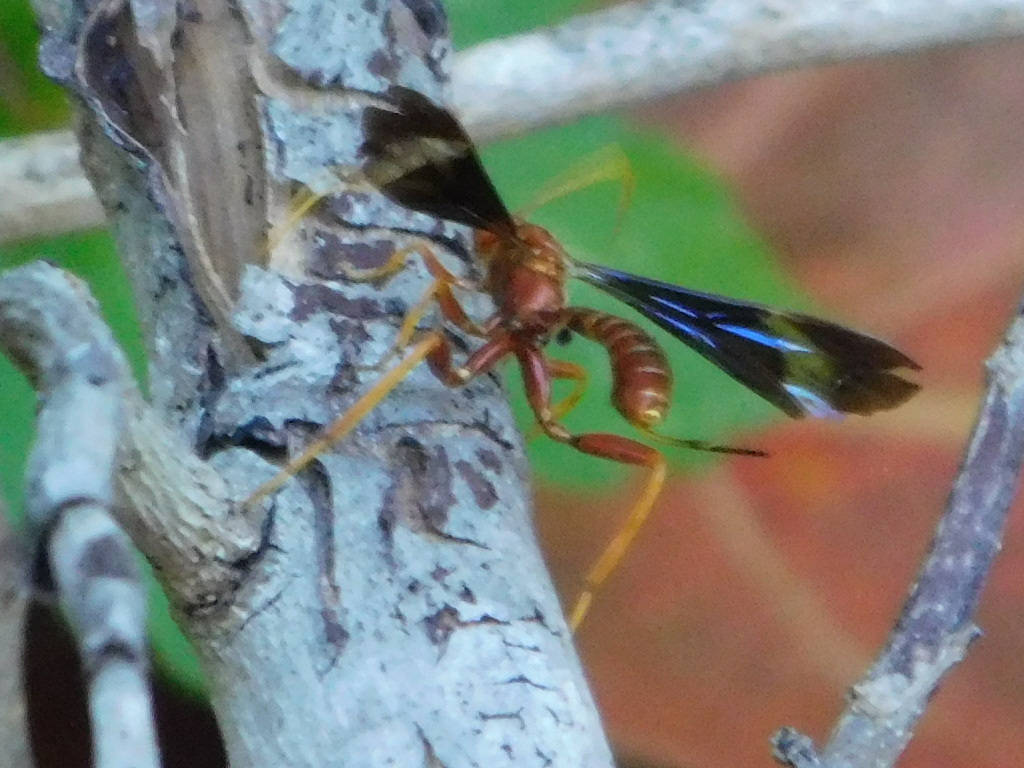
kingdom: Animalia
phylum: Arthropoda
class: Insecta
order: Hymenoptera
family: Ichneumonidae
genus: Labena
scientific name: Labena grallator
